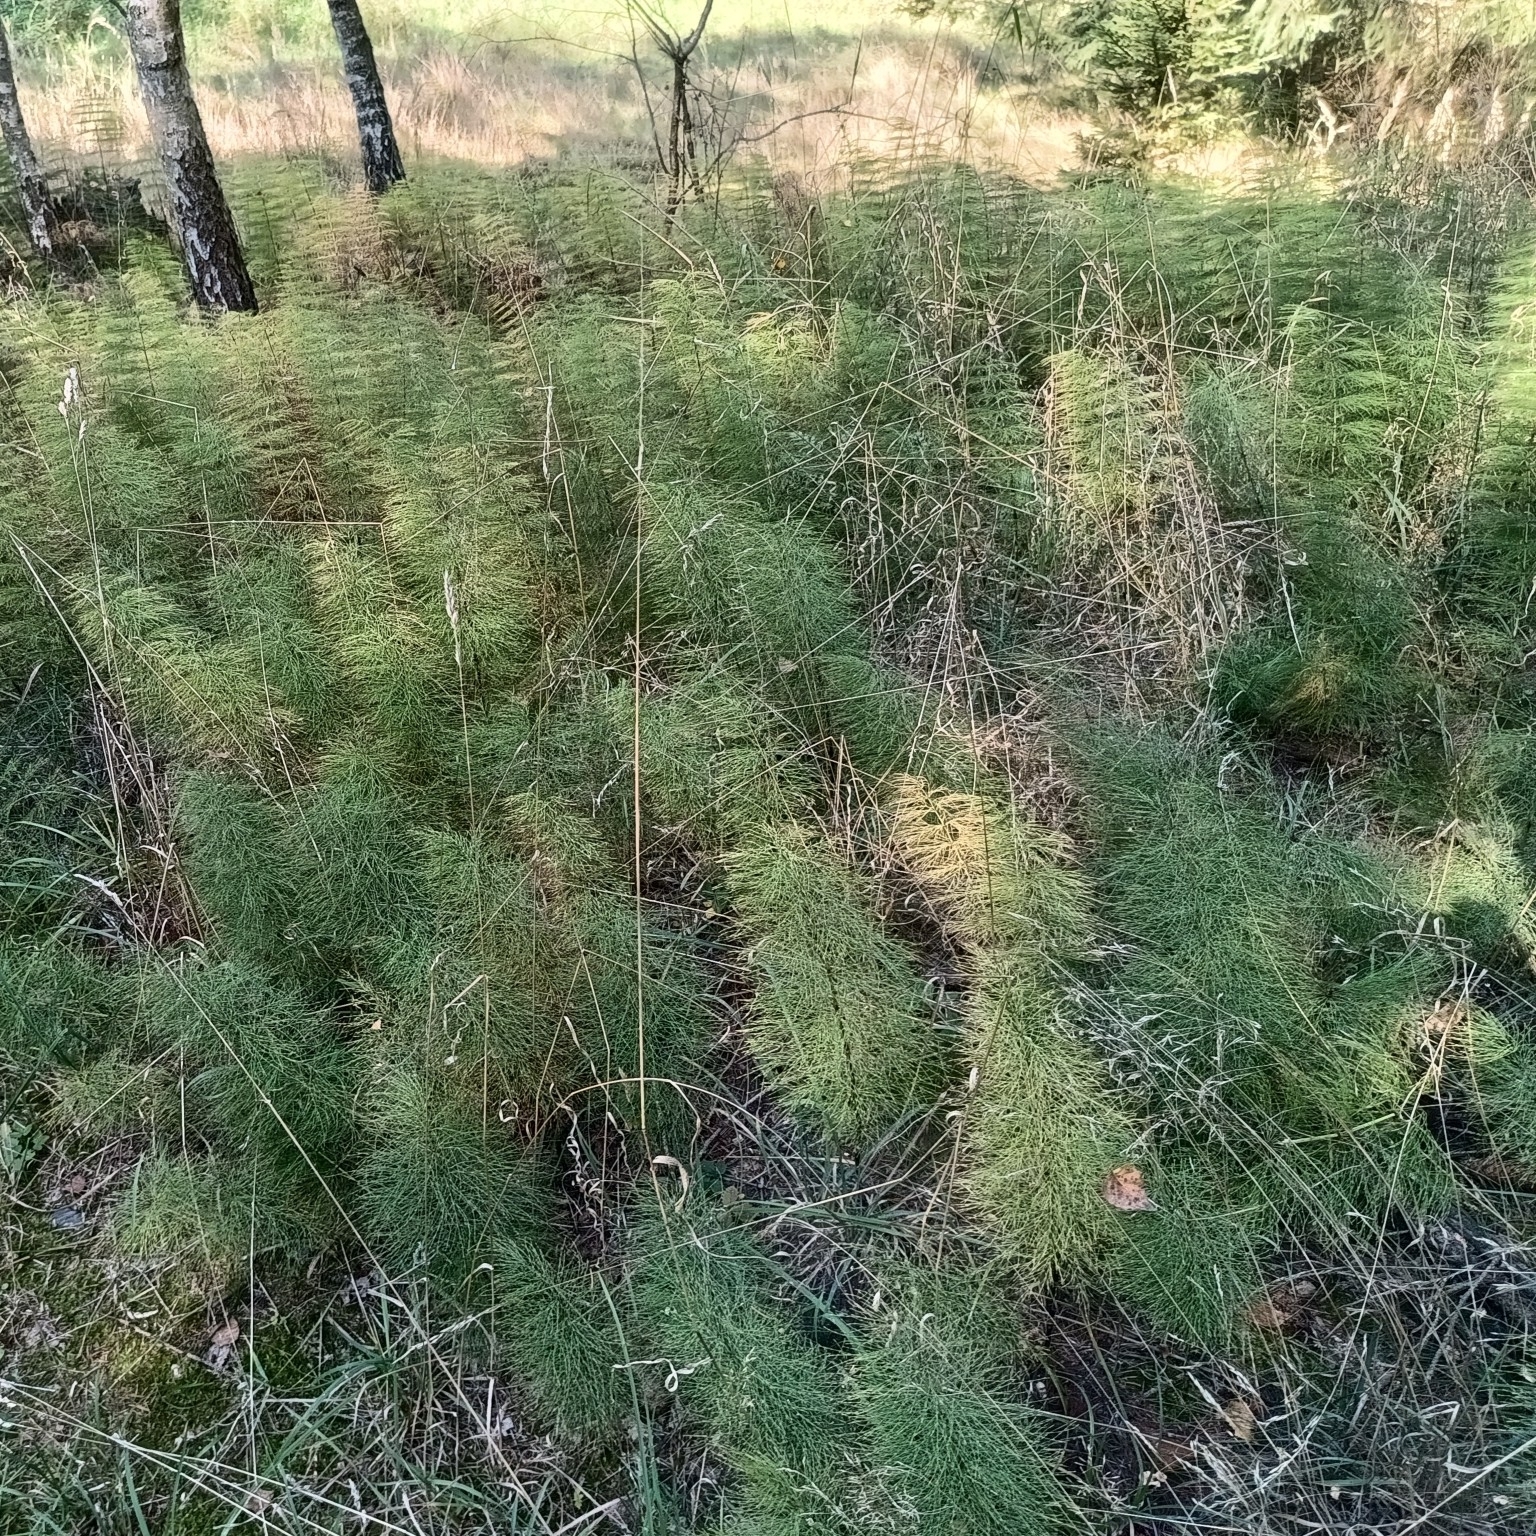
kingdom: Plantae
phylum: Tracheophyta
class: Polypodiopsida
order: Equisetales
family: Equisetaceae
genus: Equisetum
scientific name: Equisetum sylvaticum
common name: Wood horsetail
